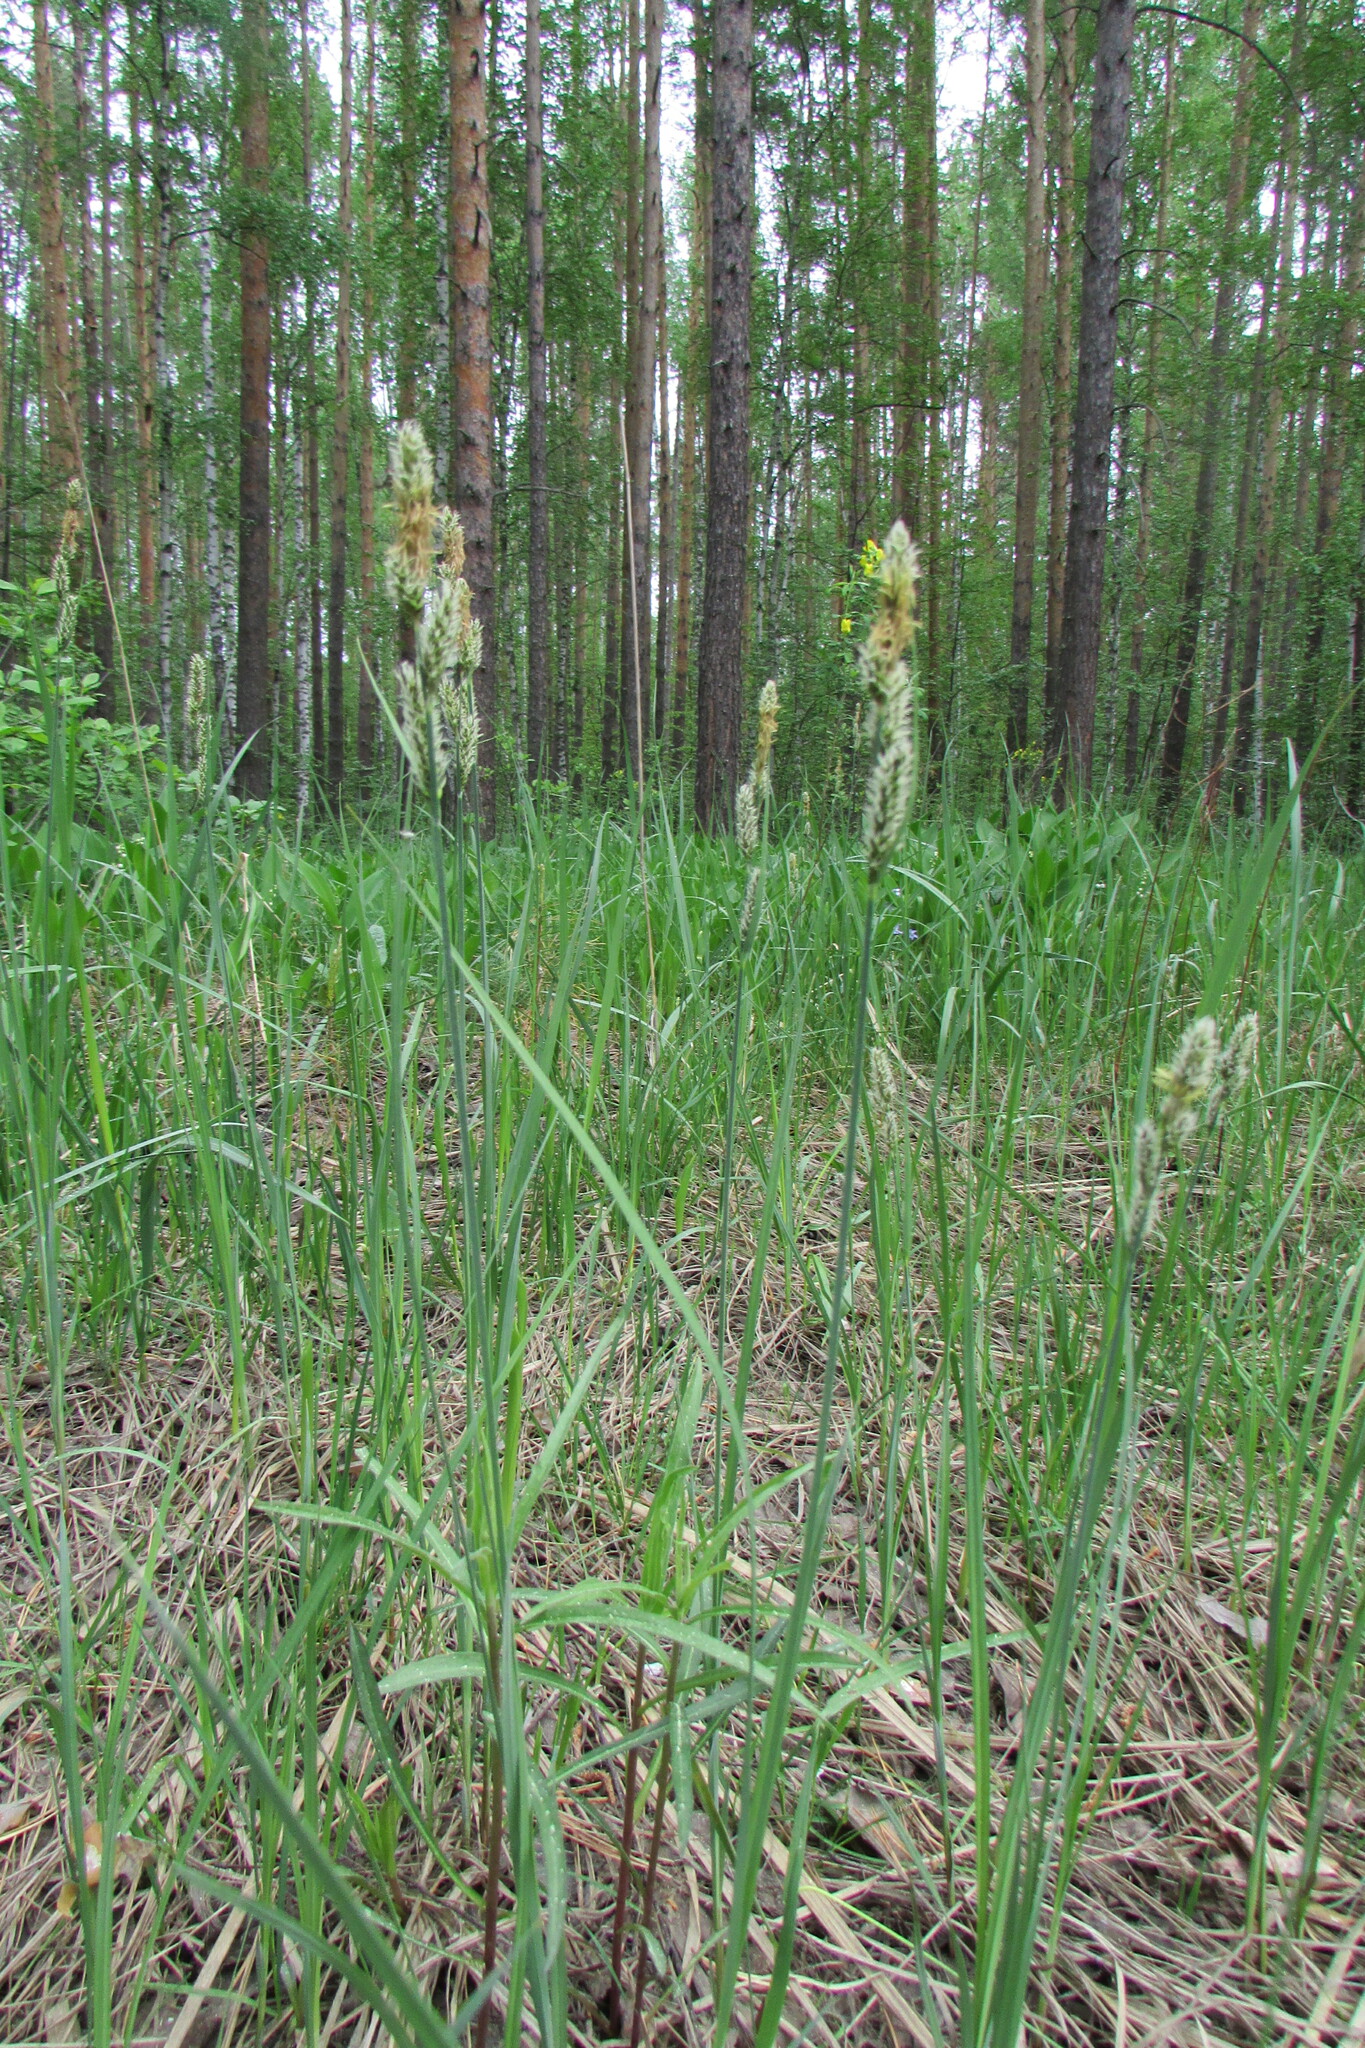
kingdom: Plantae
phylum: Tracheophyta
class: Liliopsida
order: Poales
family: Cyperaceae
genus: Carex
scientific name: Carex hartmaniorum
